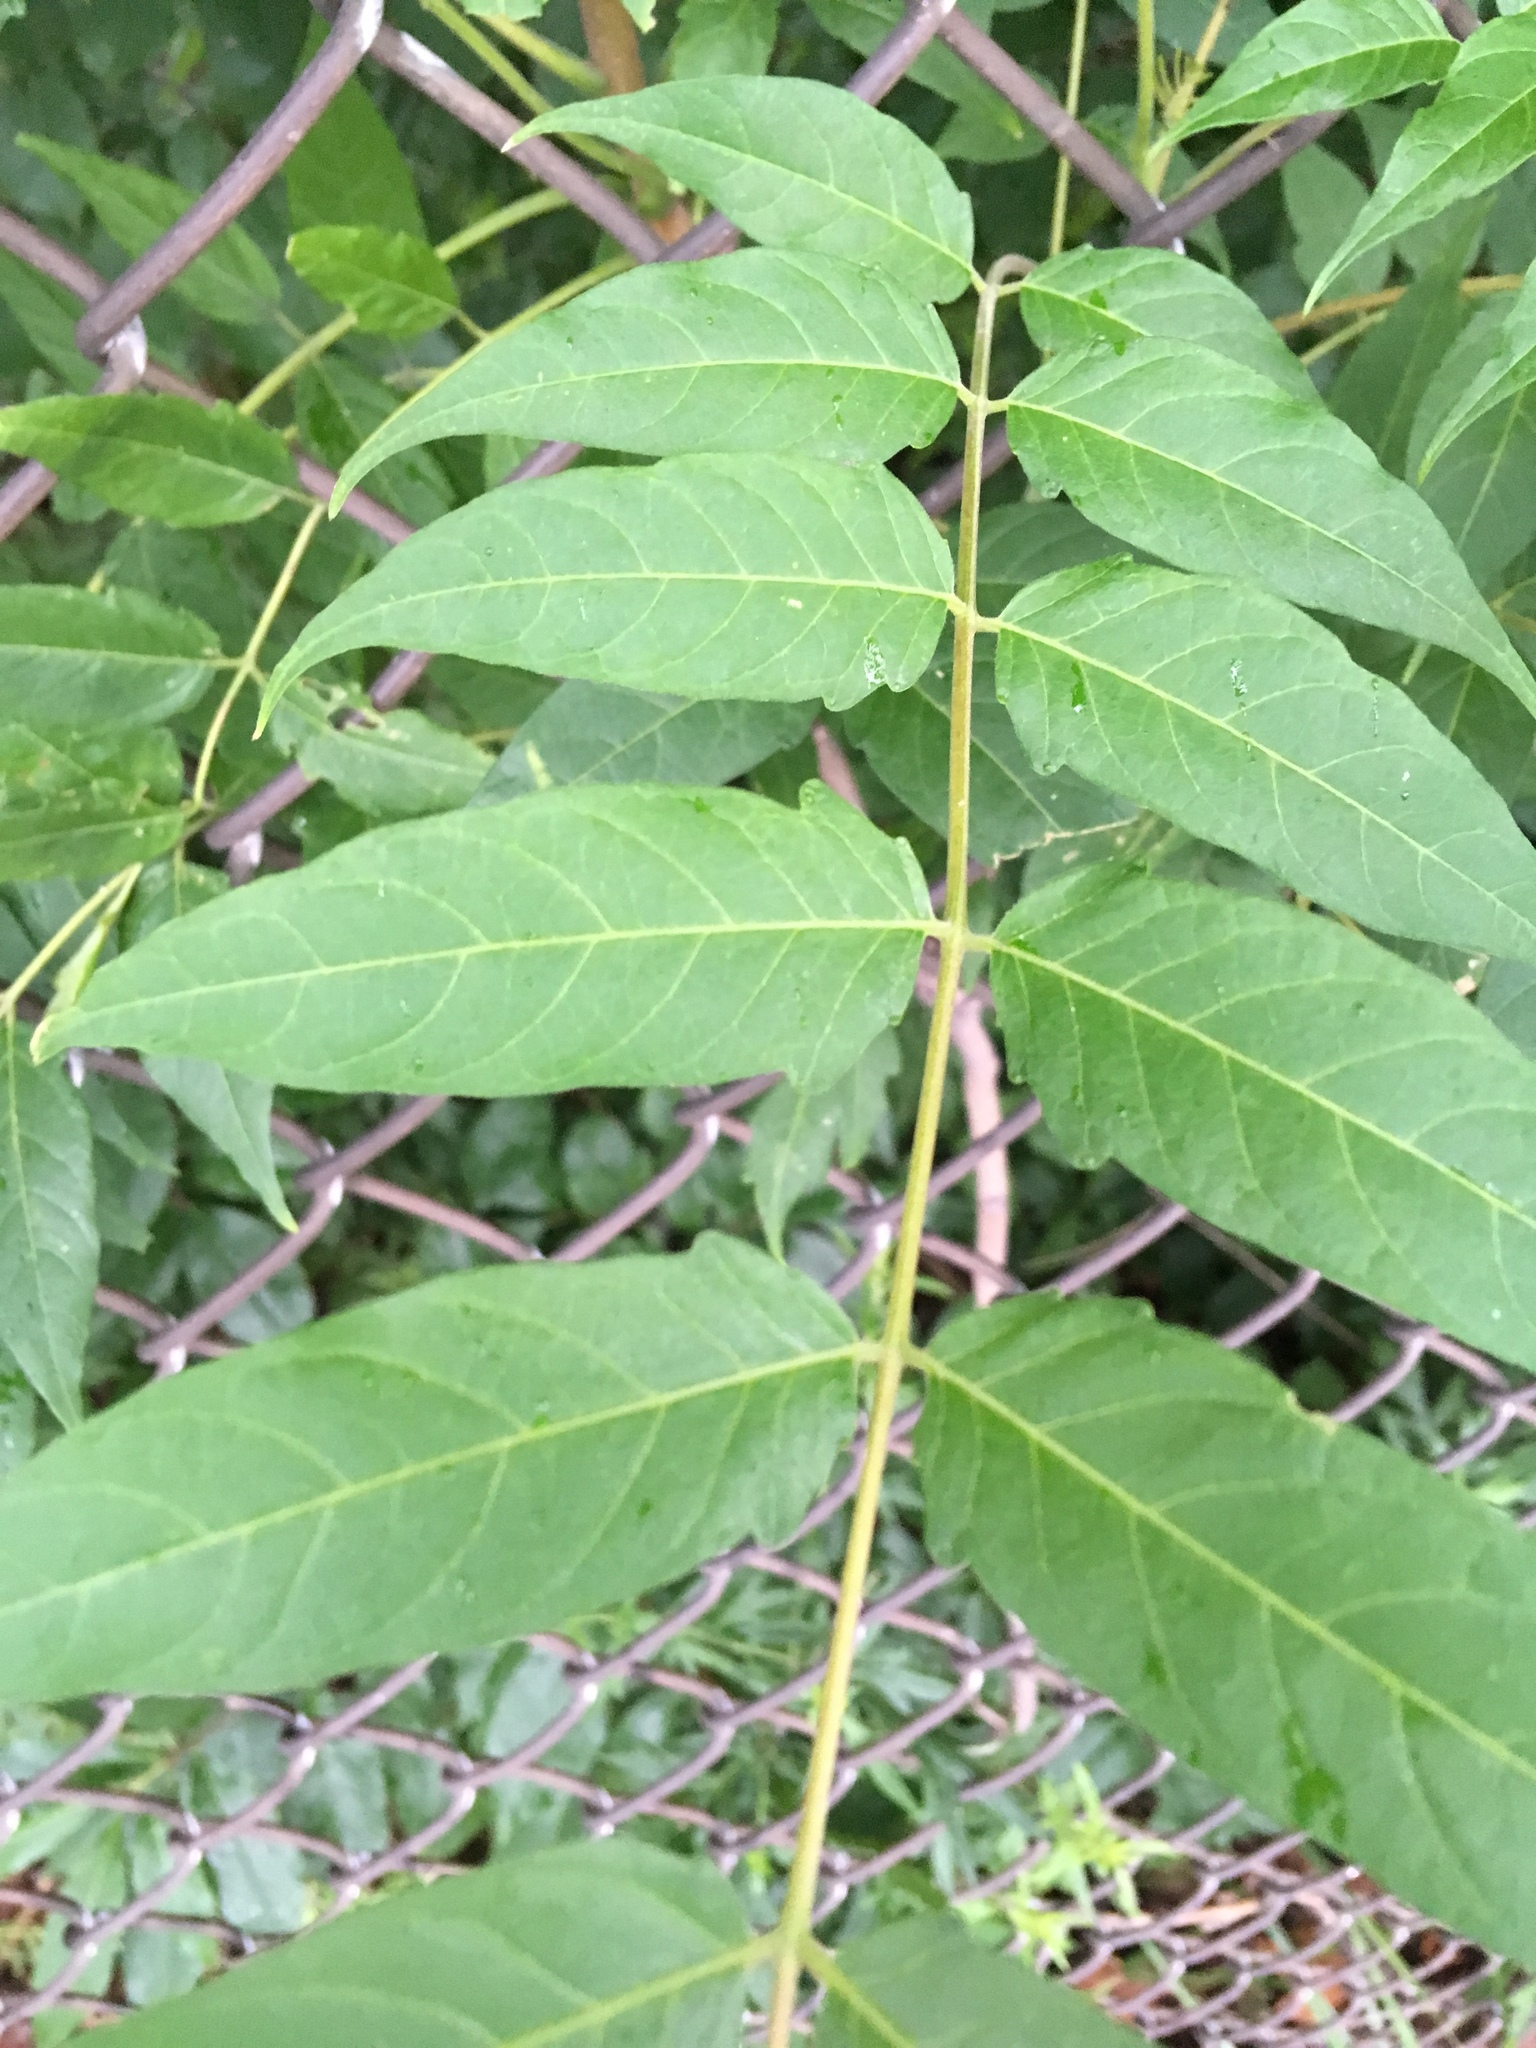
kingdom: Plantae
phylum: Tracheophyta
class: Magnoliopsida
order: Sapindales
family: Simaroubaceae
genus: Ailanthus
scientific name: Ailanthus altissima
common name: Tree-of-heaven
